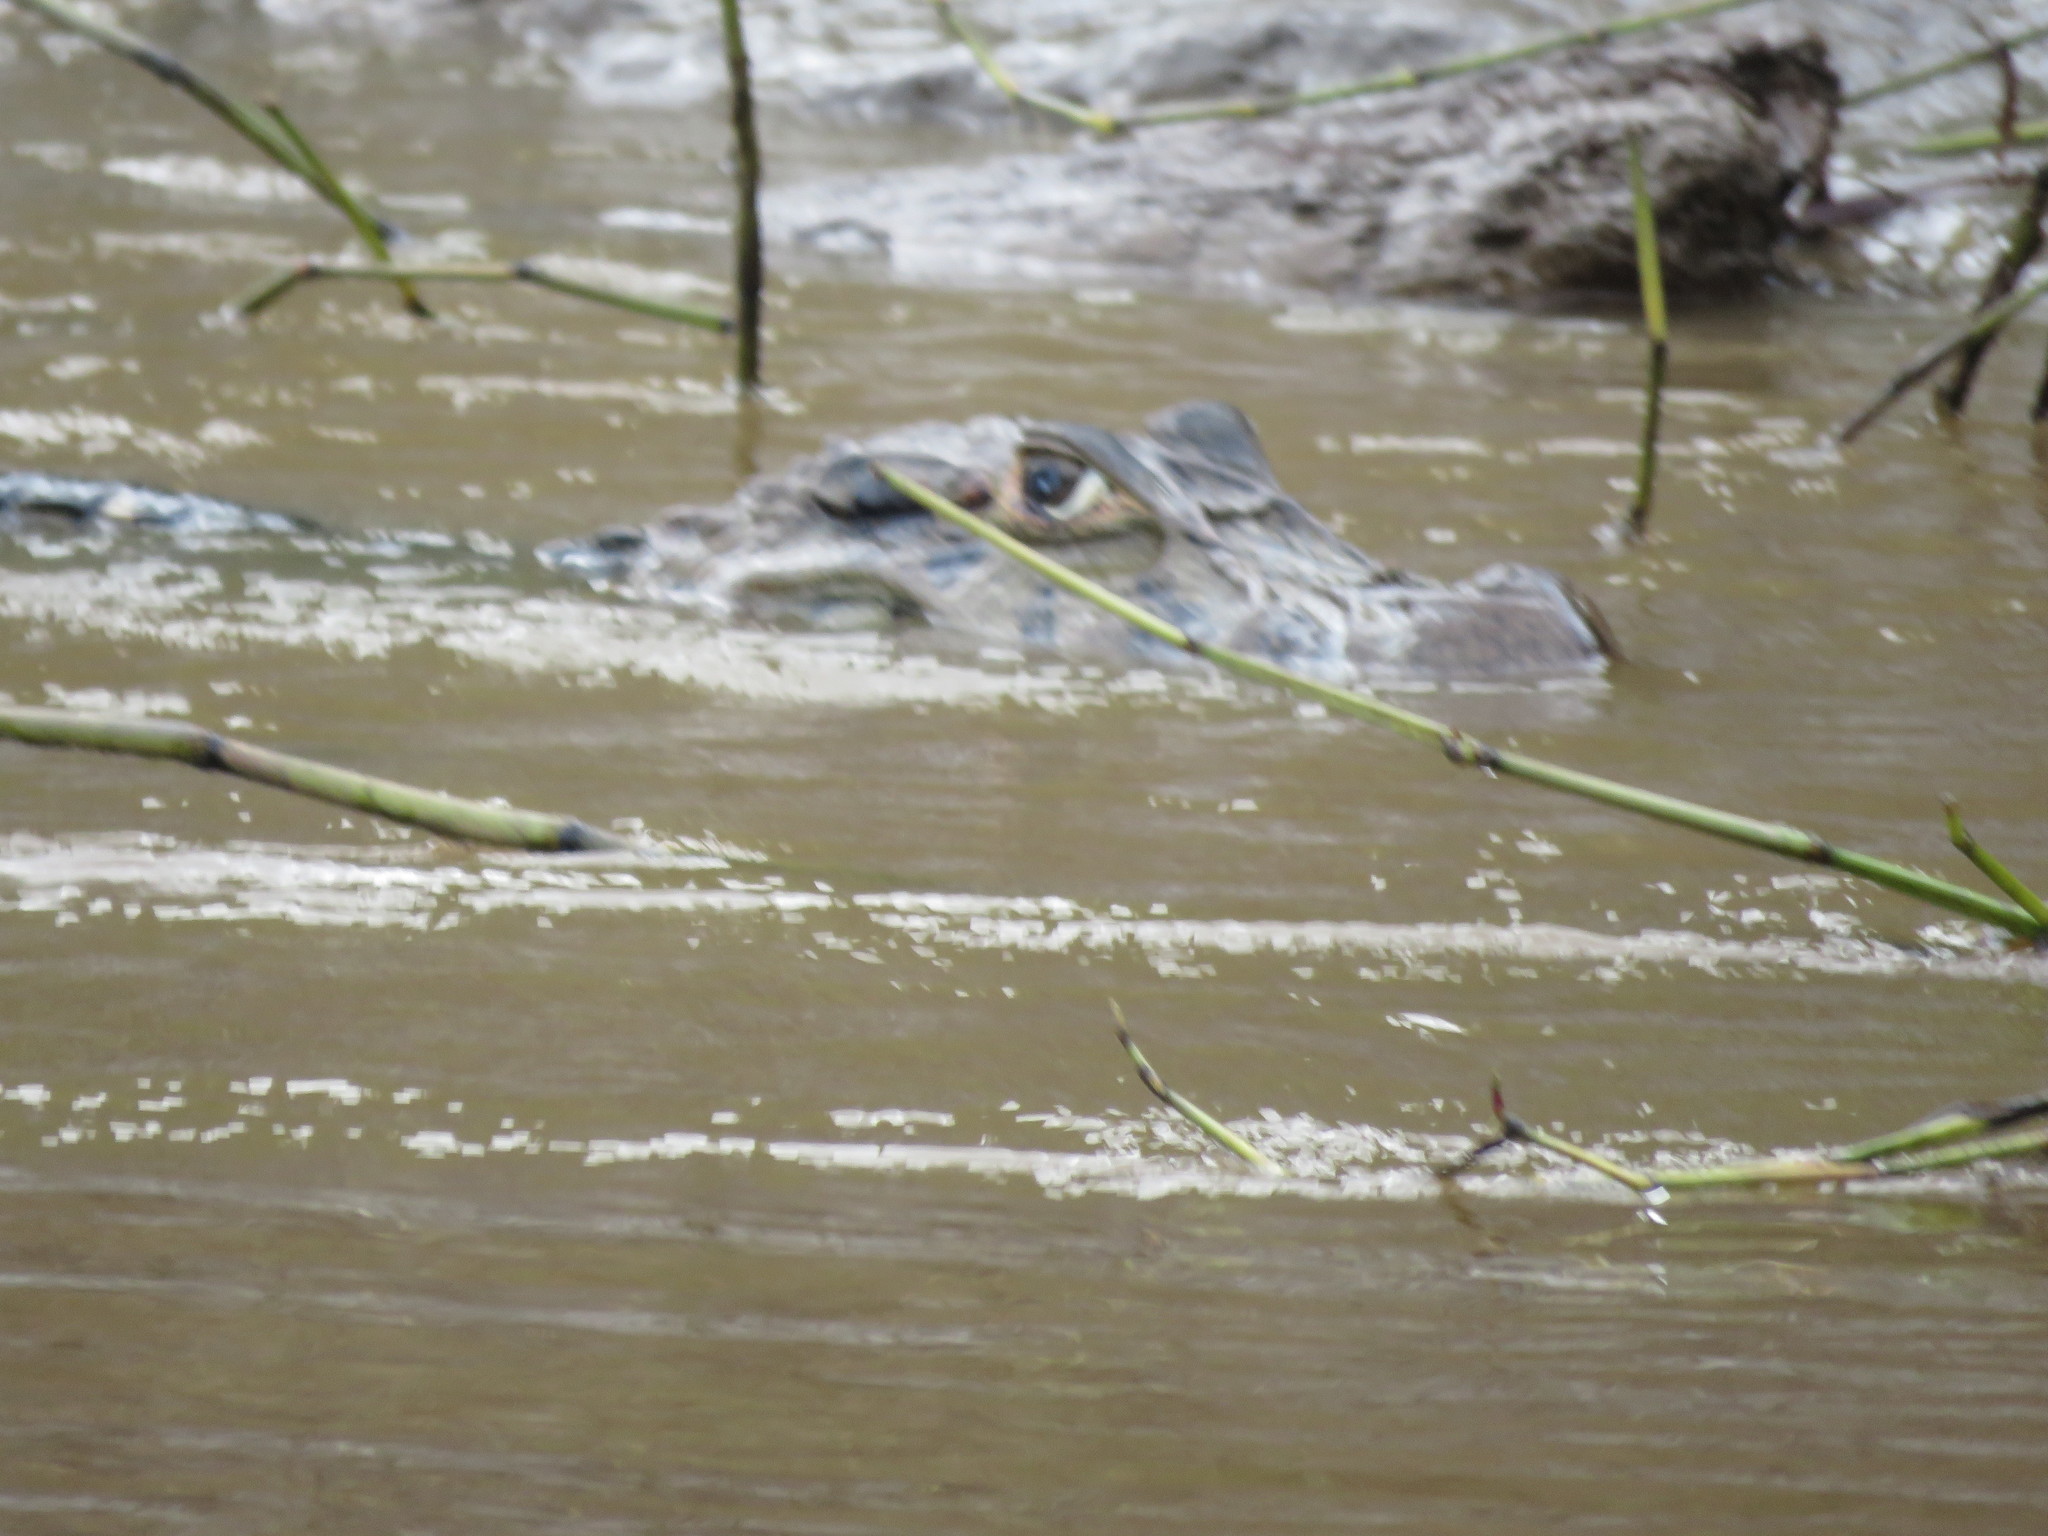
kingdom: Animalia
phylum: Chordata
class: Crocodylia
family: Alligatoridae
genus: Melanosuchus
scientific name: Melanosuchus niger
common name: Black caiman
